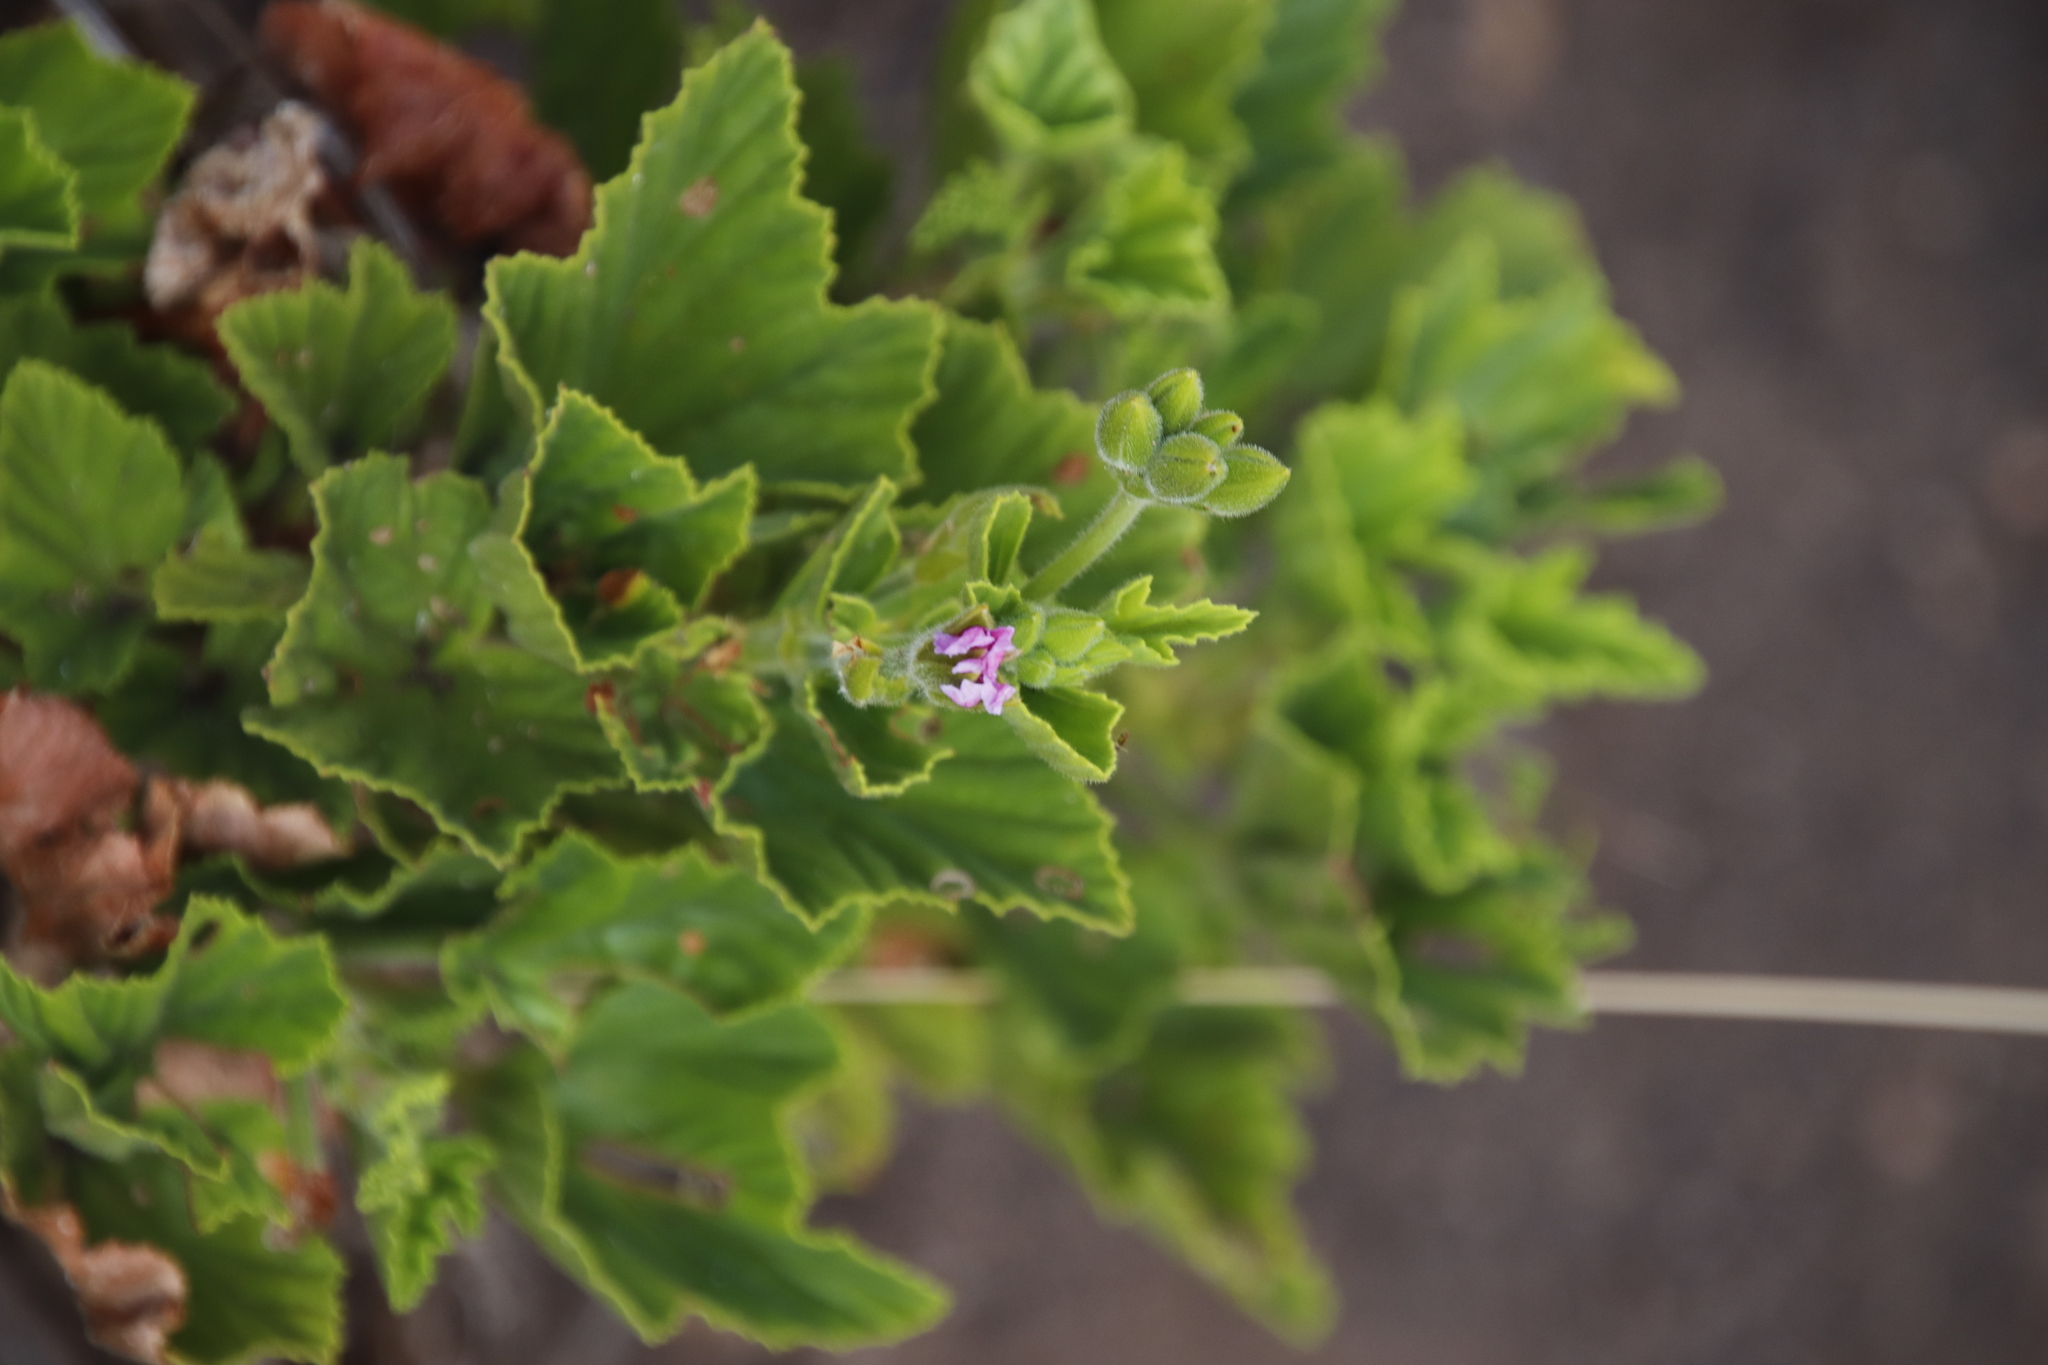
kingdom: Plantae
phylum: Tracheophyta
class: Magnoliopsida
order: Geraniales
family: Geraniaceae
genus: Pelargonium
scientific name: Pelargonium cucullatum
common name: Tree pelargonium
